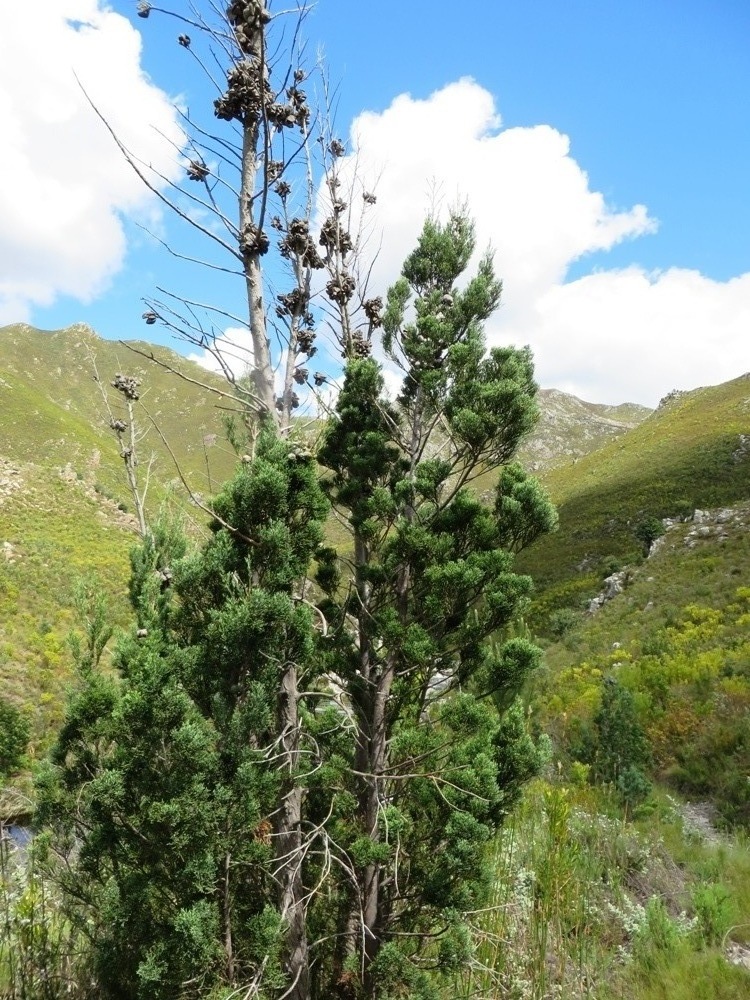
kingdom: Plantae
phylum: Tracheophyta
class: Pinopsida
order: Pinales
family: Cupressaceae
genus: Widdringtonia
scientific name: Widdringtonia nodiflora
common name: Cape cypress
